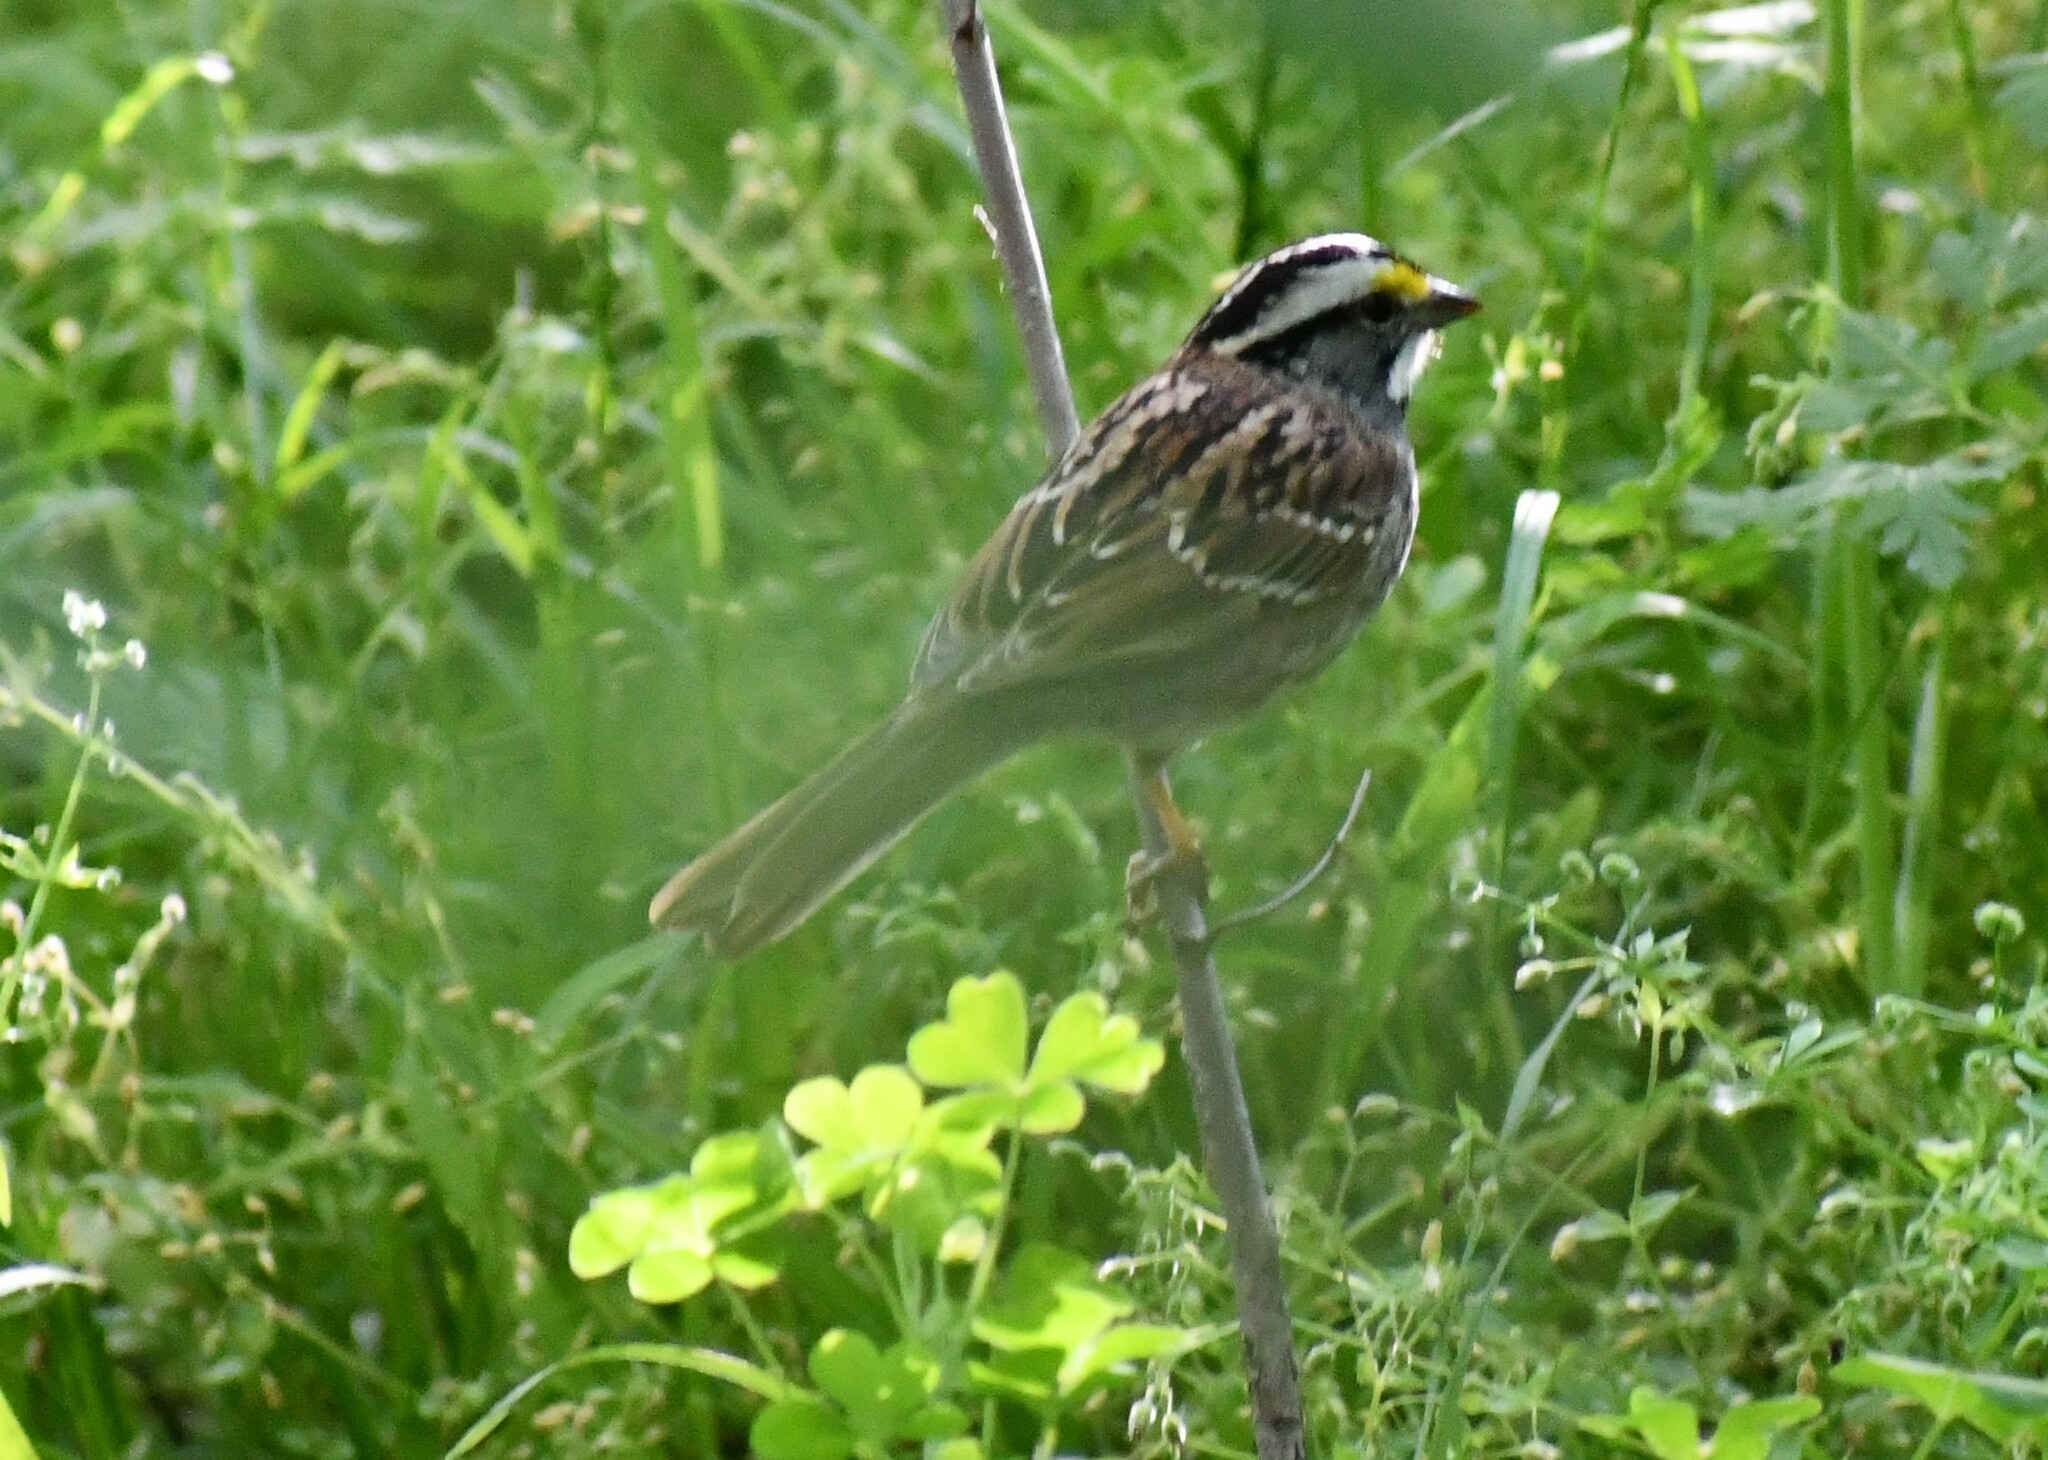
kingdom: Animalia
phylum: Chordata
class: Aves
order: Passeriformes
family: Passerellidae
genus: Zonotrichia
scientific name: Zonotrichia albicollis
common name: White-throated sparrow
